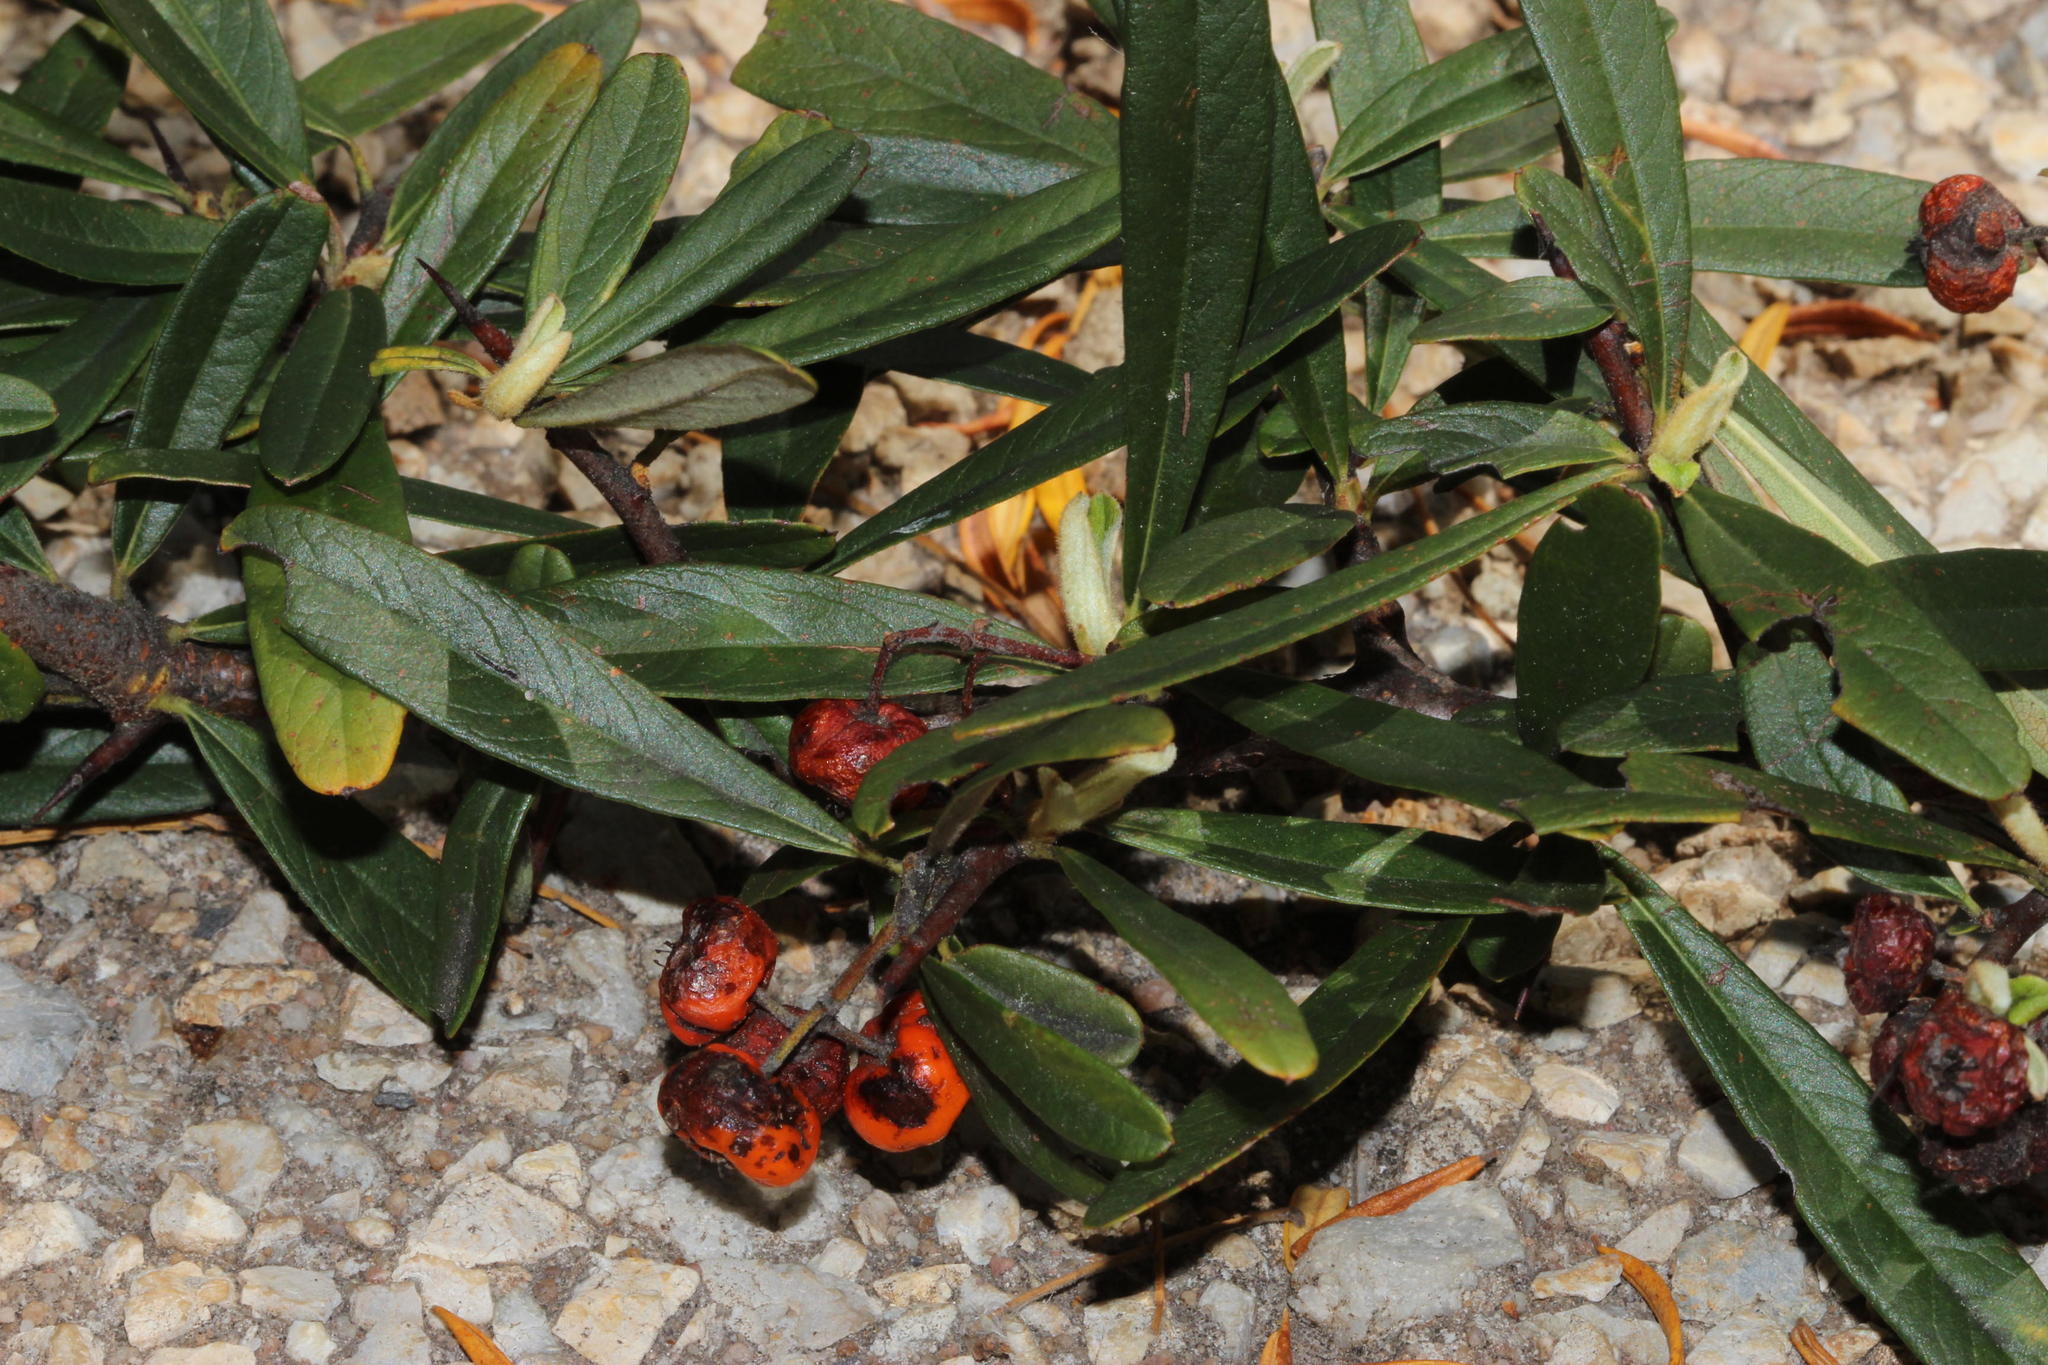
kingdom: Plantae
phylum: Tracheophyta
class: Magnoliopsida
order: Rosales
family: Rosaceae
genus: Pyracantha
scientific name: Pyracantha angustifolia
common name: Narrowleaf firethorn
